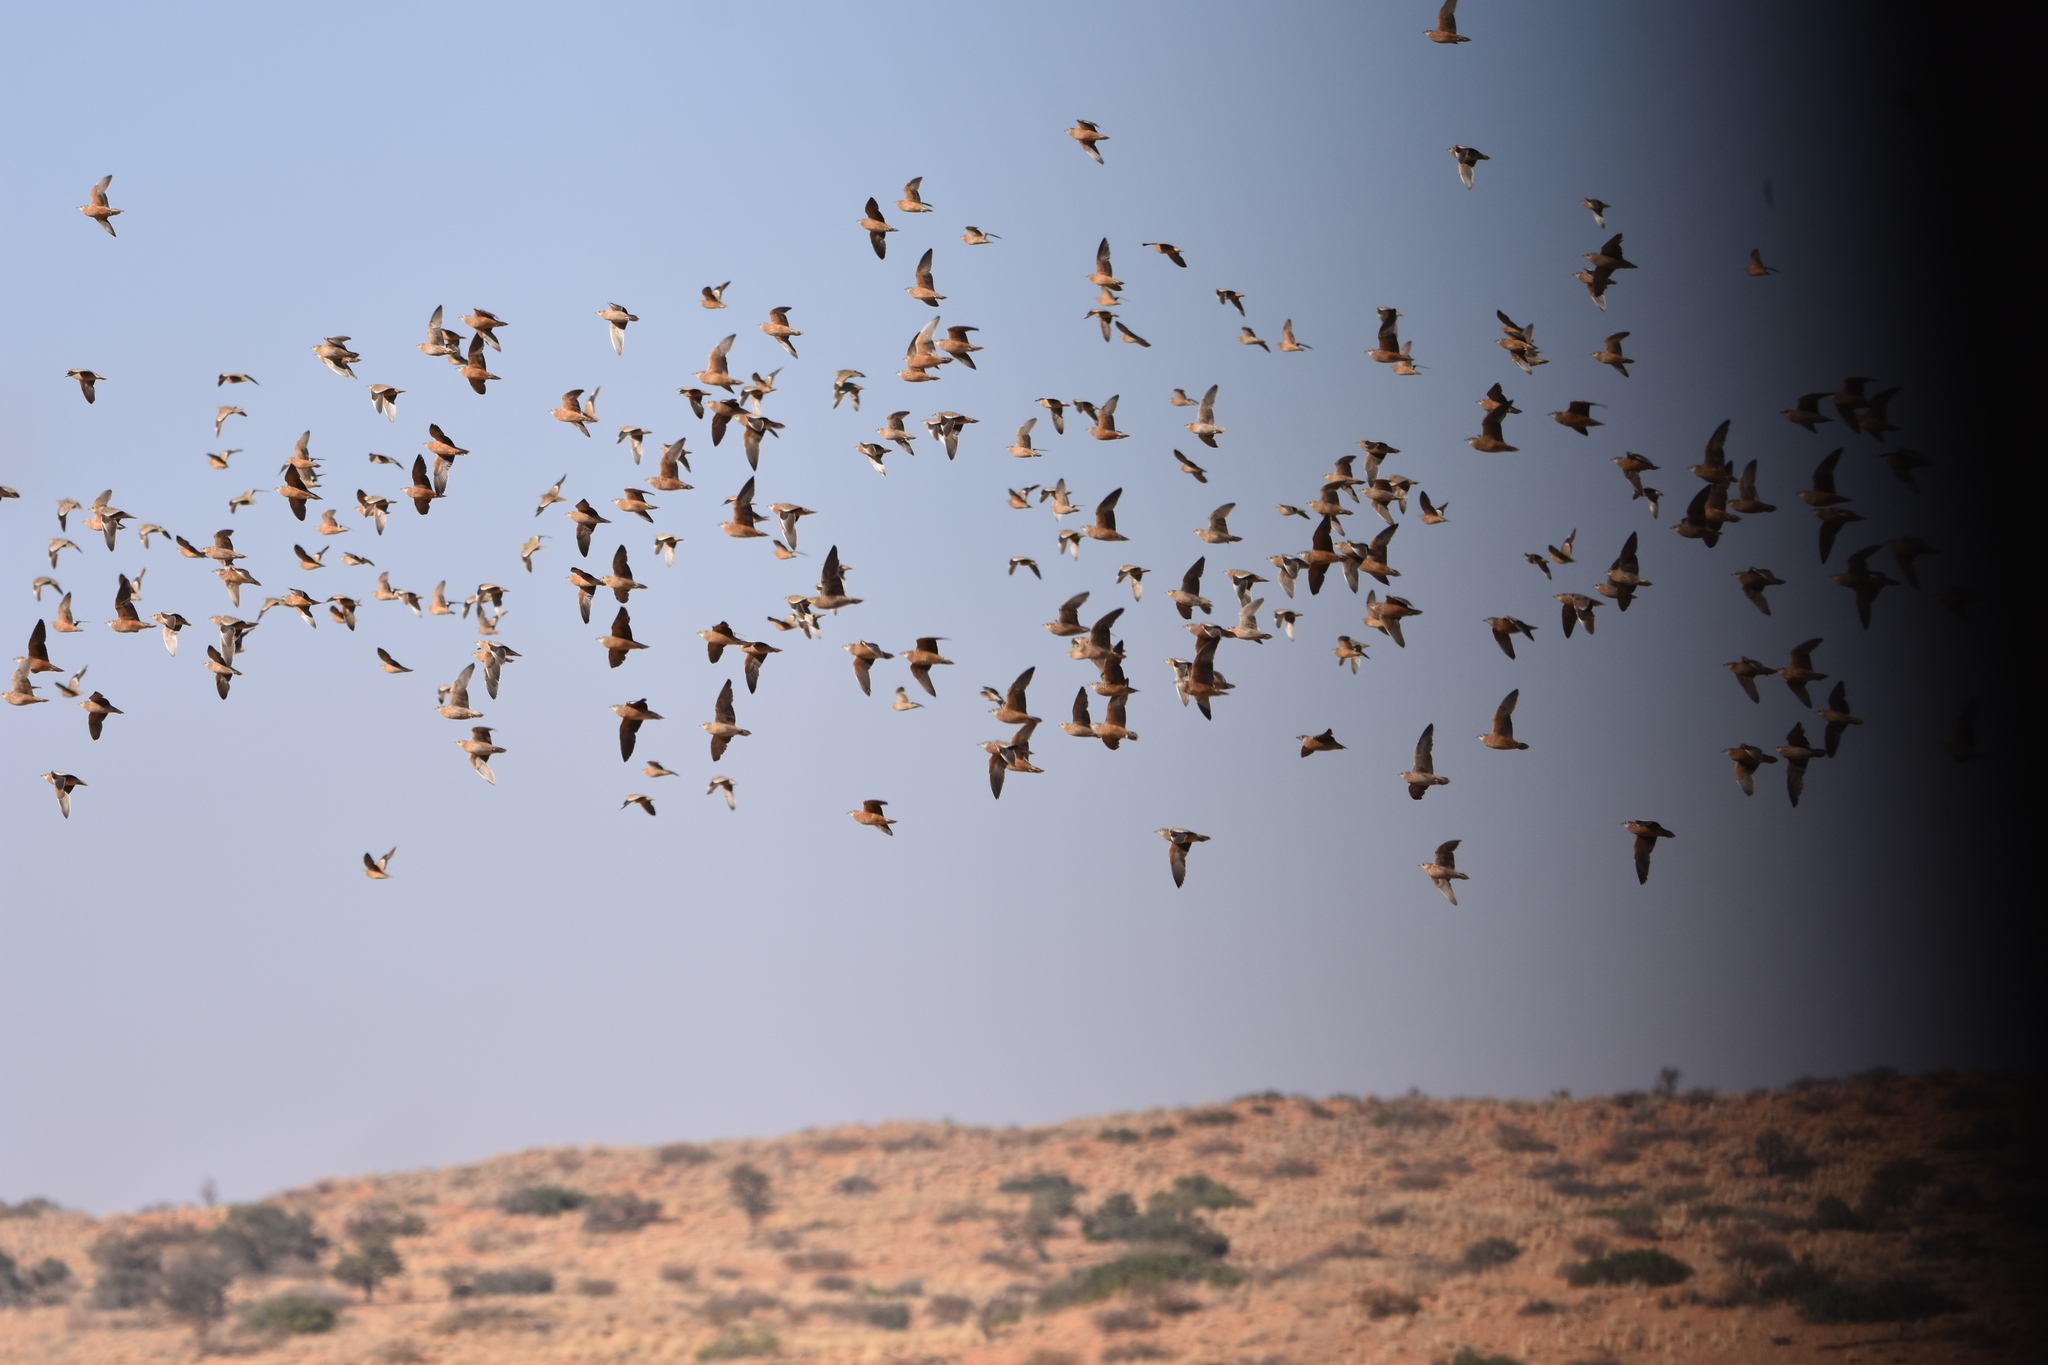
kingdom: Animalia
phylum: Chordata
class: Aves
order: Pteroclidiformes
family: Pteroclididae
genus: Pterocles
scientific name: Pterocles burchelli
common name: Burchell's sandgrouse
